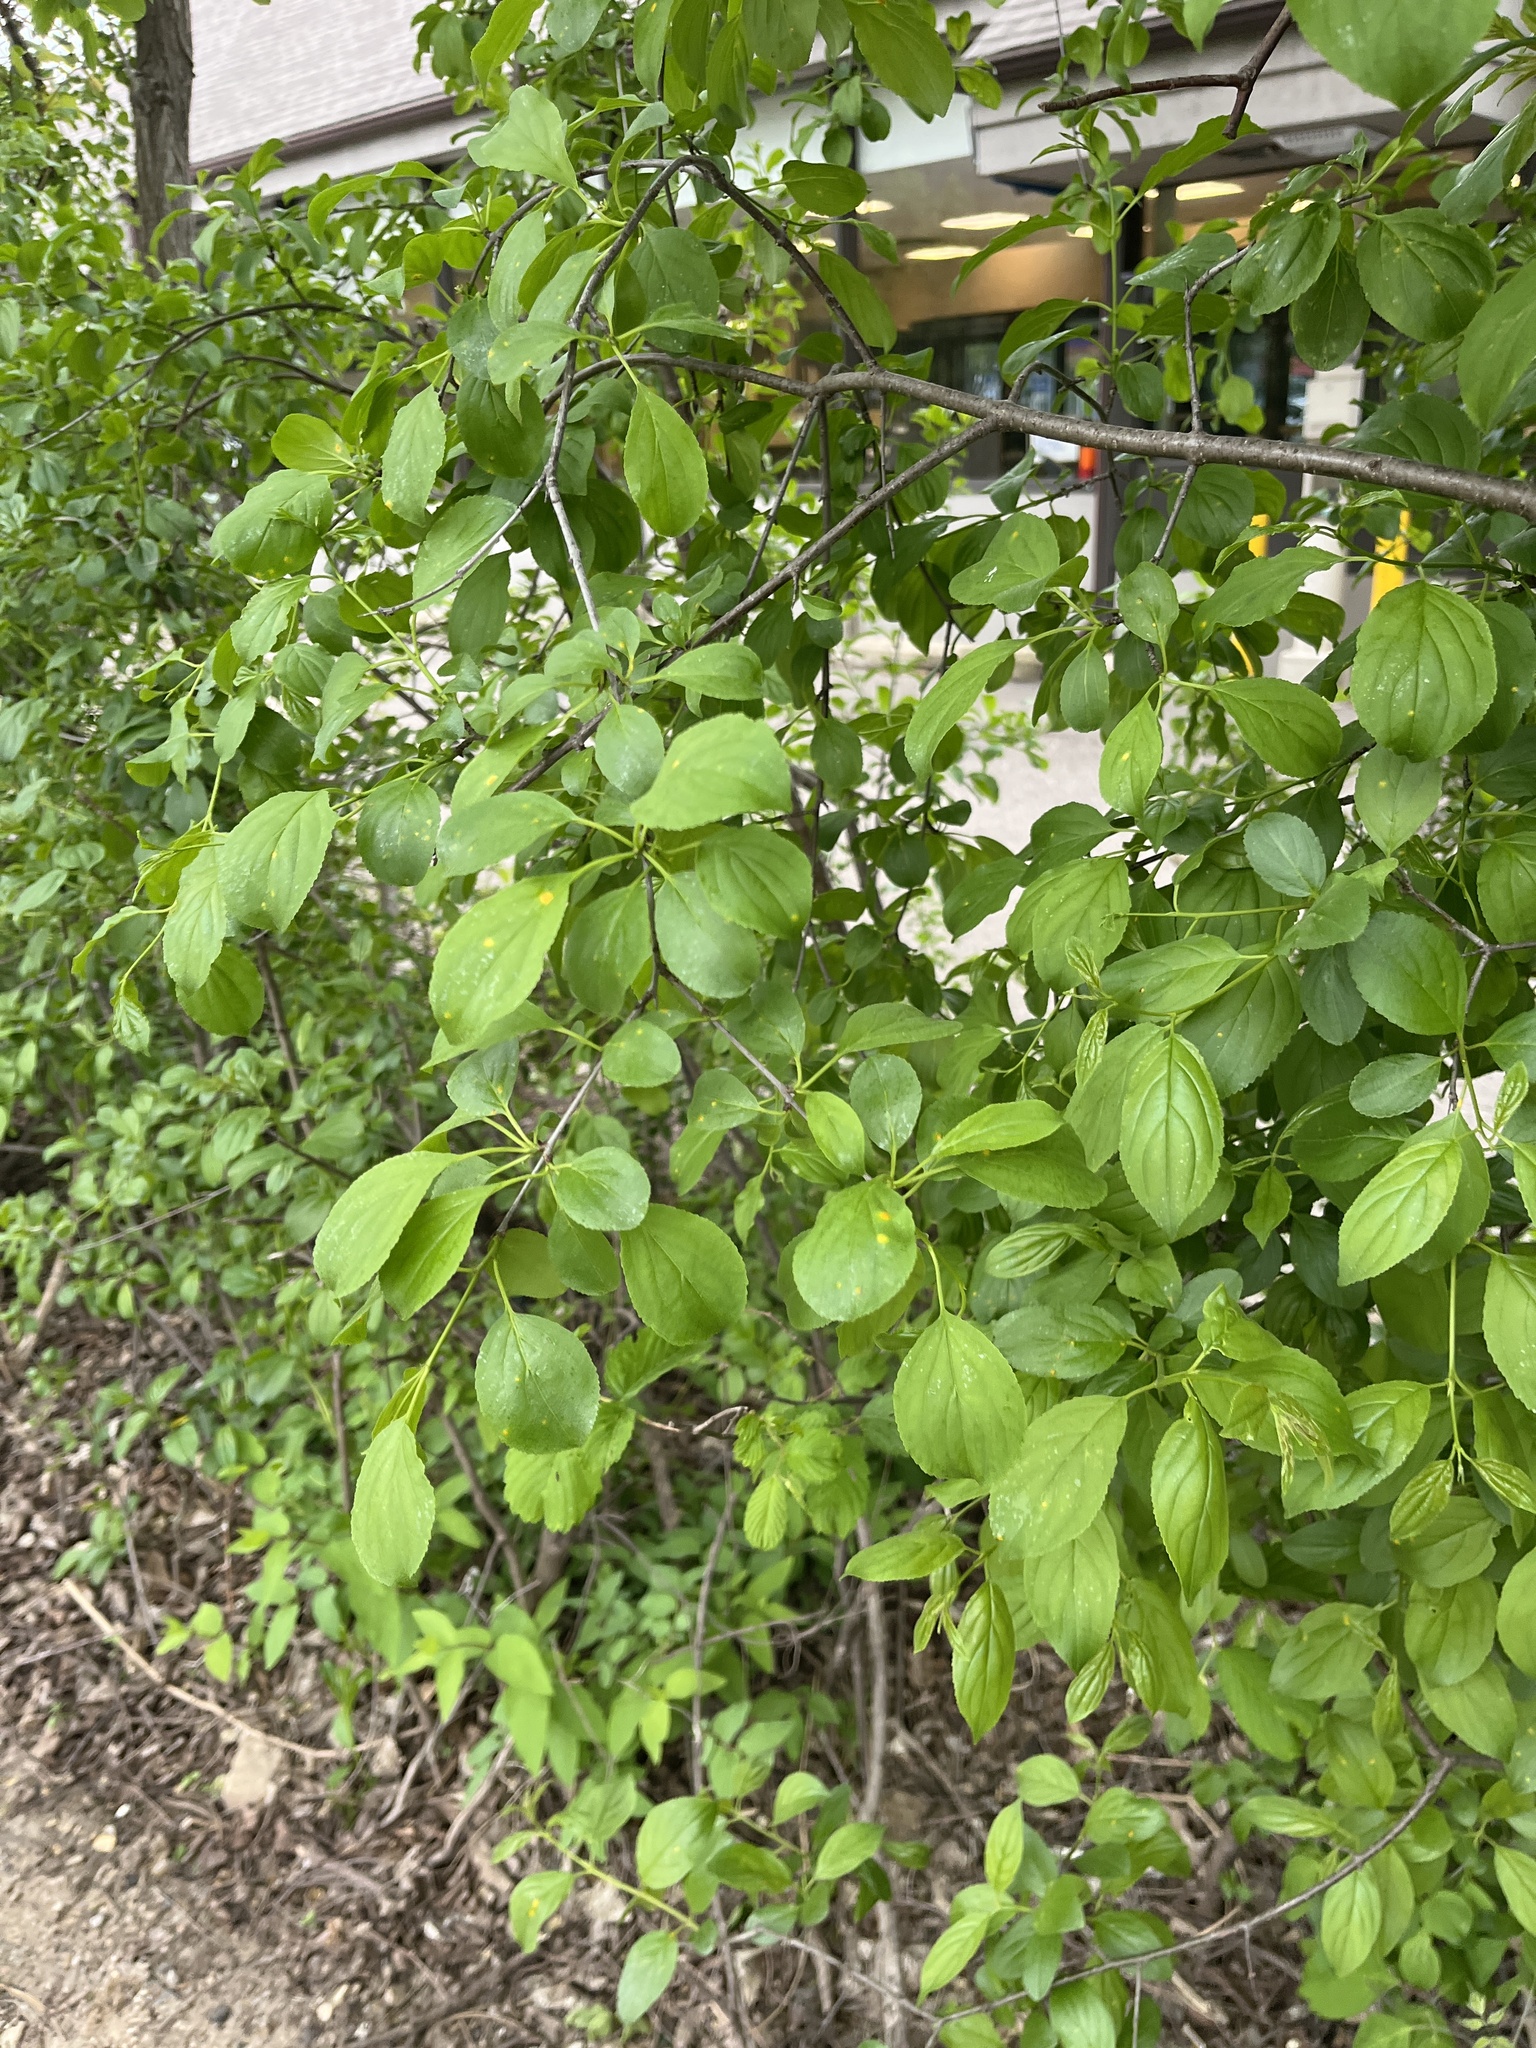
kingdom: Plantae
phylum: Tracheophyta
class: Magnoliopsida
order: Rosales
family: Rhamnaceae
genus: Rhamnus
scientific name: Rhamnus cathartica
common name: Common buckthorn
